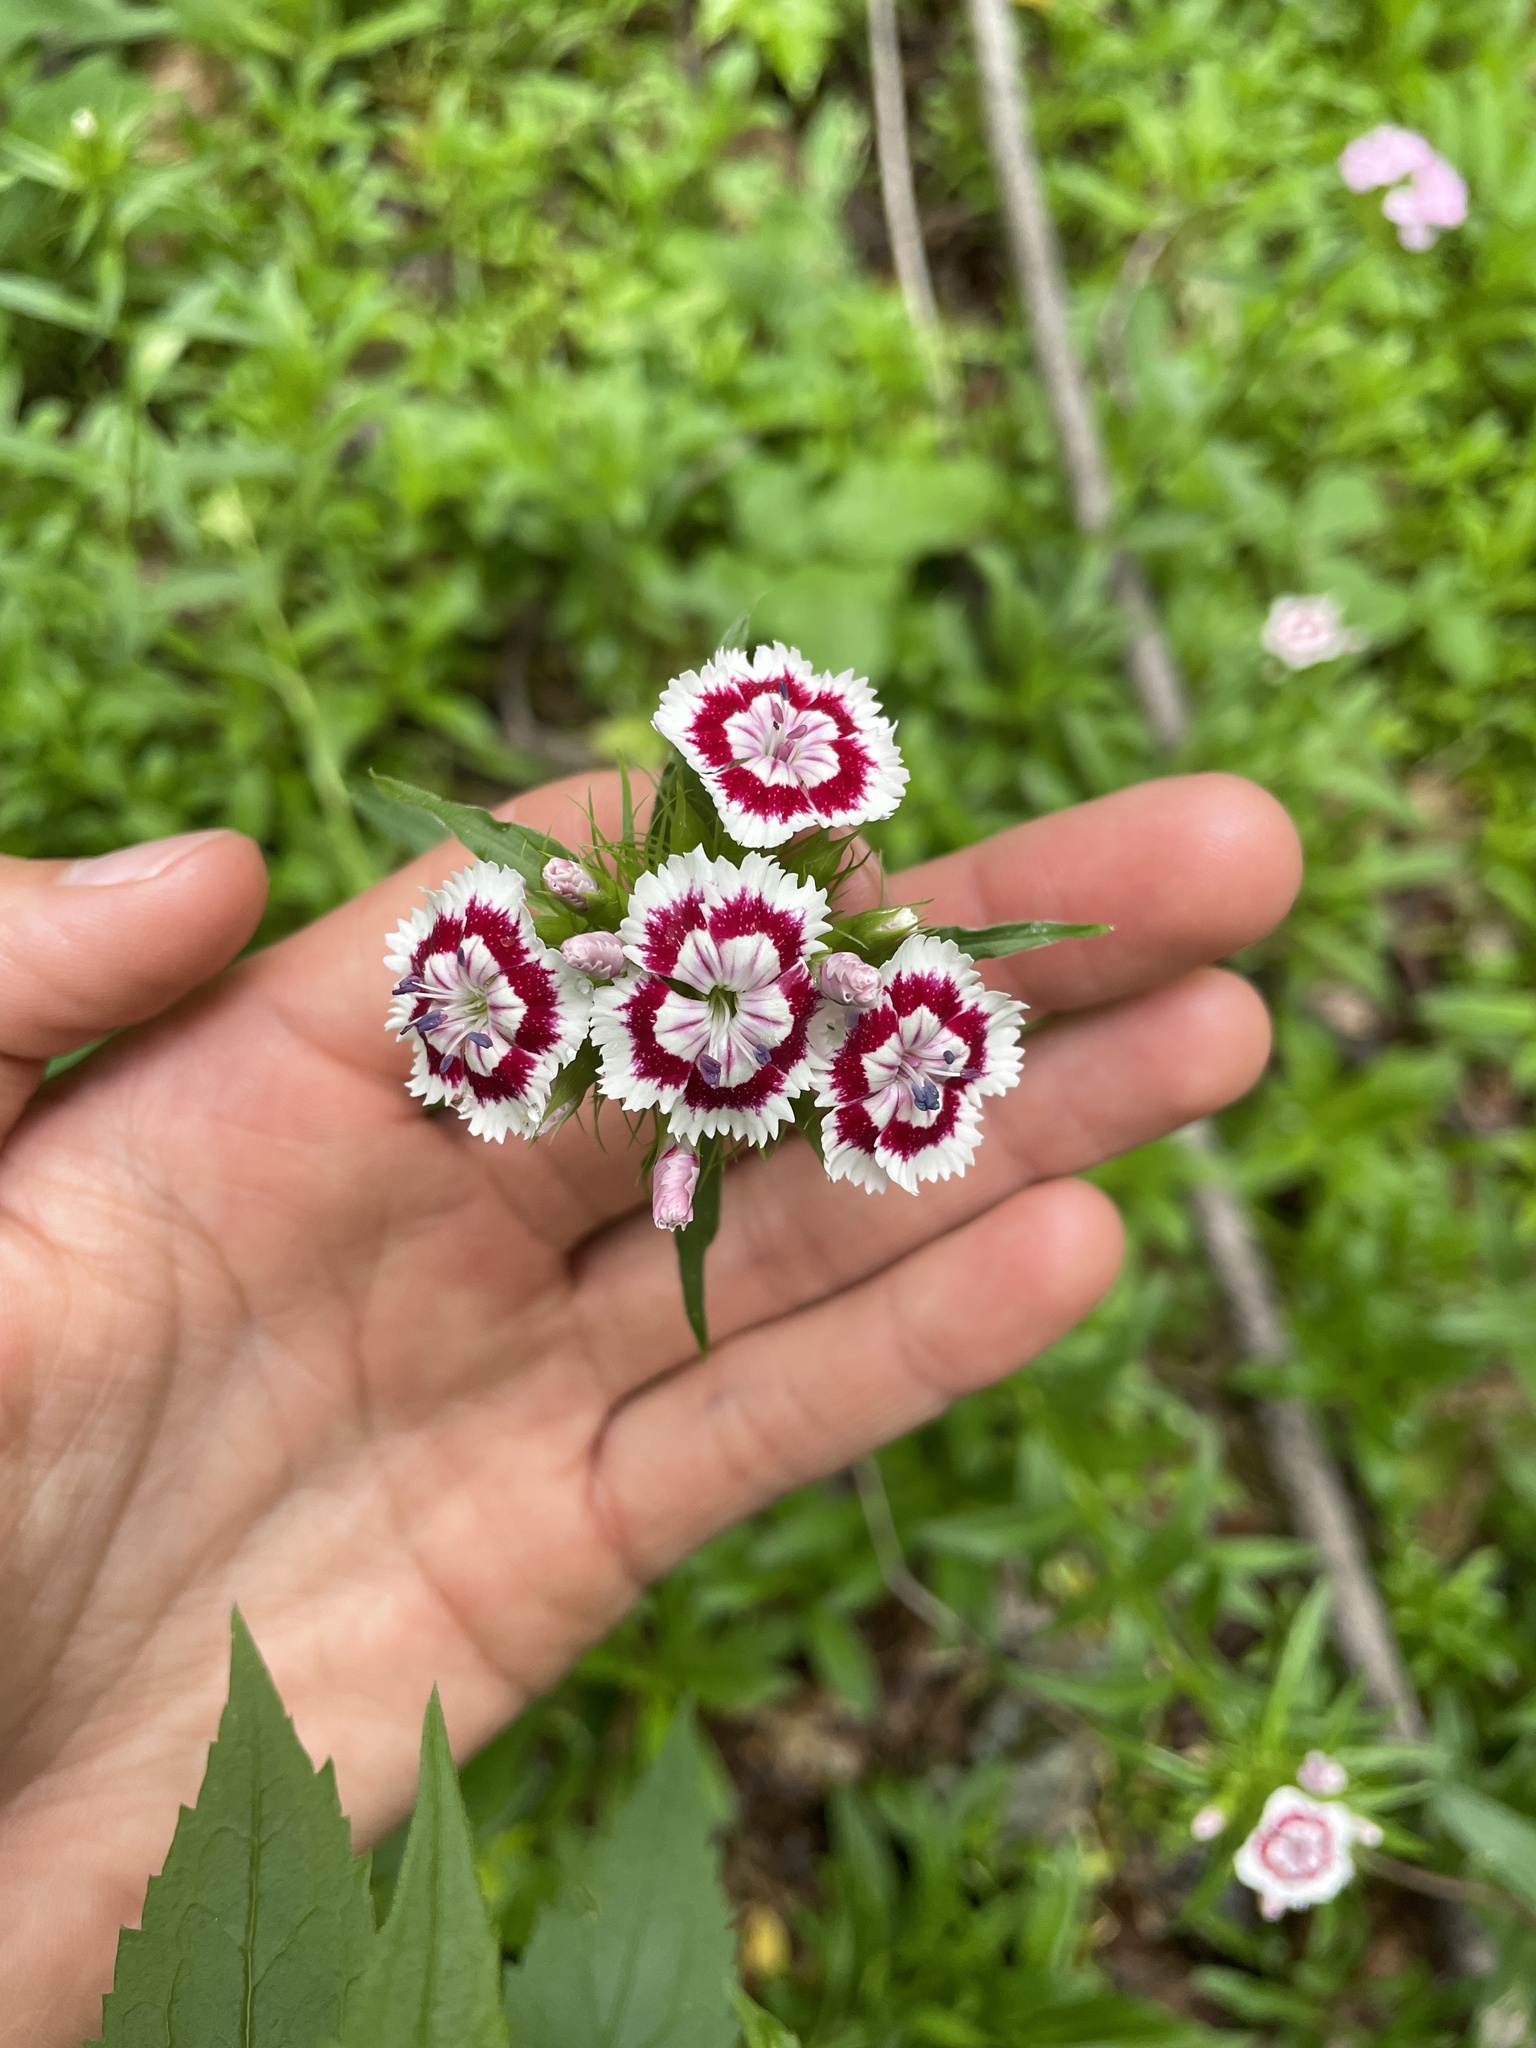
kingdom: Plantae
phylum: Tracheophyta
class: Magnoliopsida
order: Caryophyllales
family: Caryophyllaceae
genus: Dianthus
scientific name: Dianthus barbatus
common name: Sweet-william
